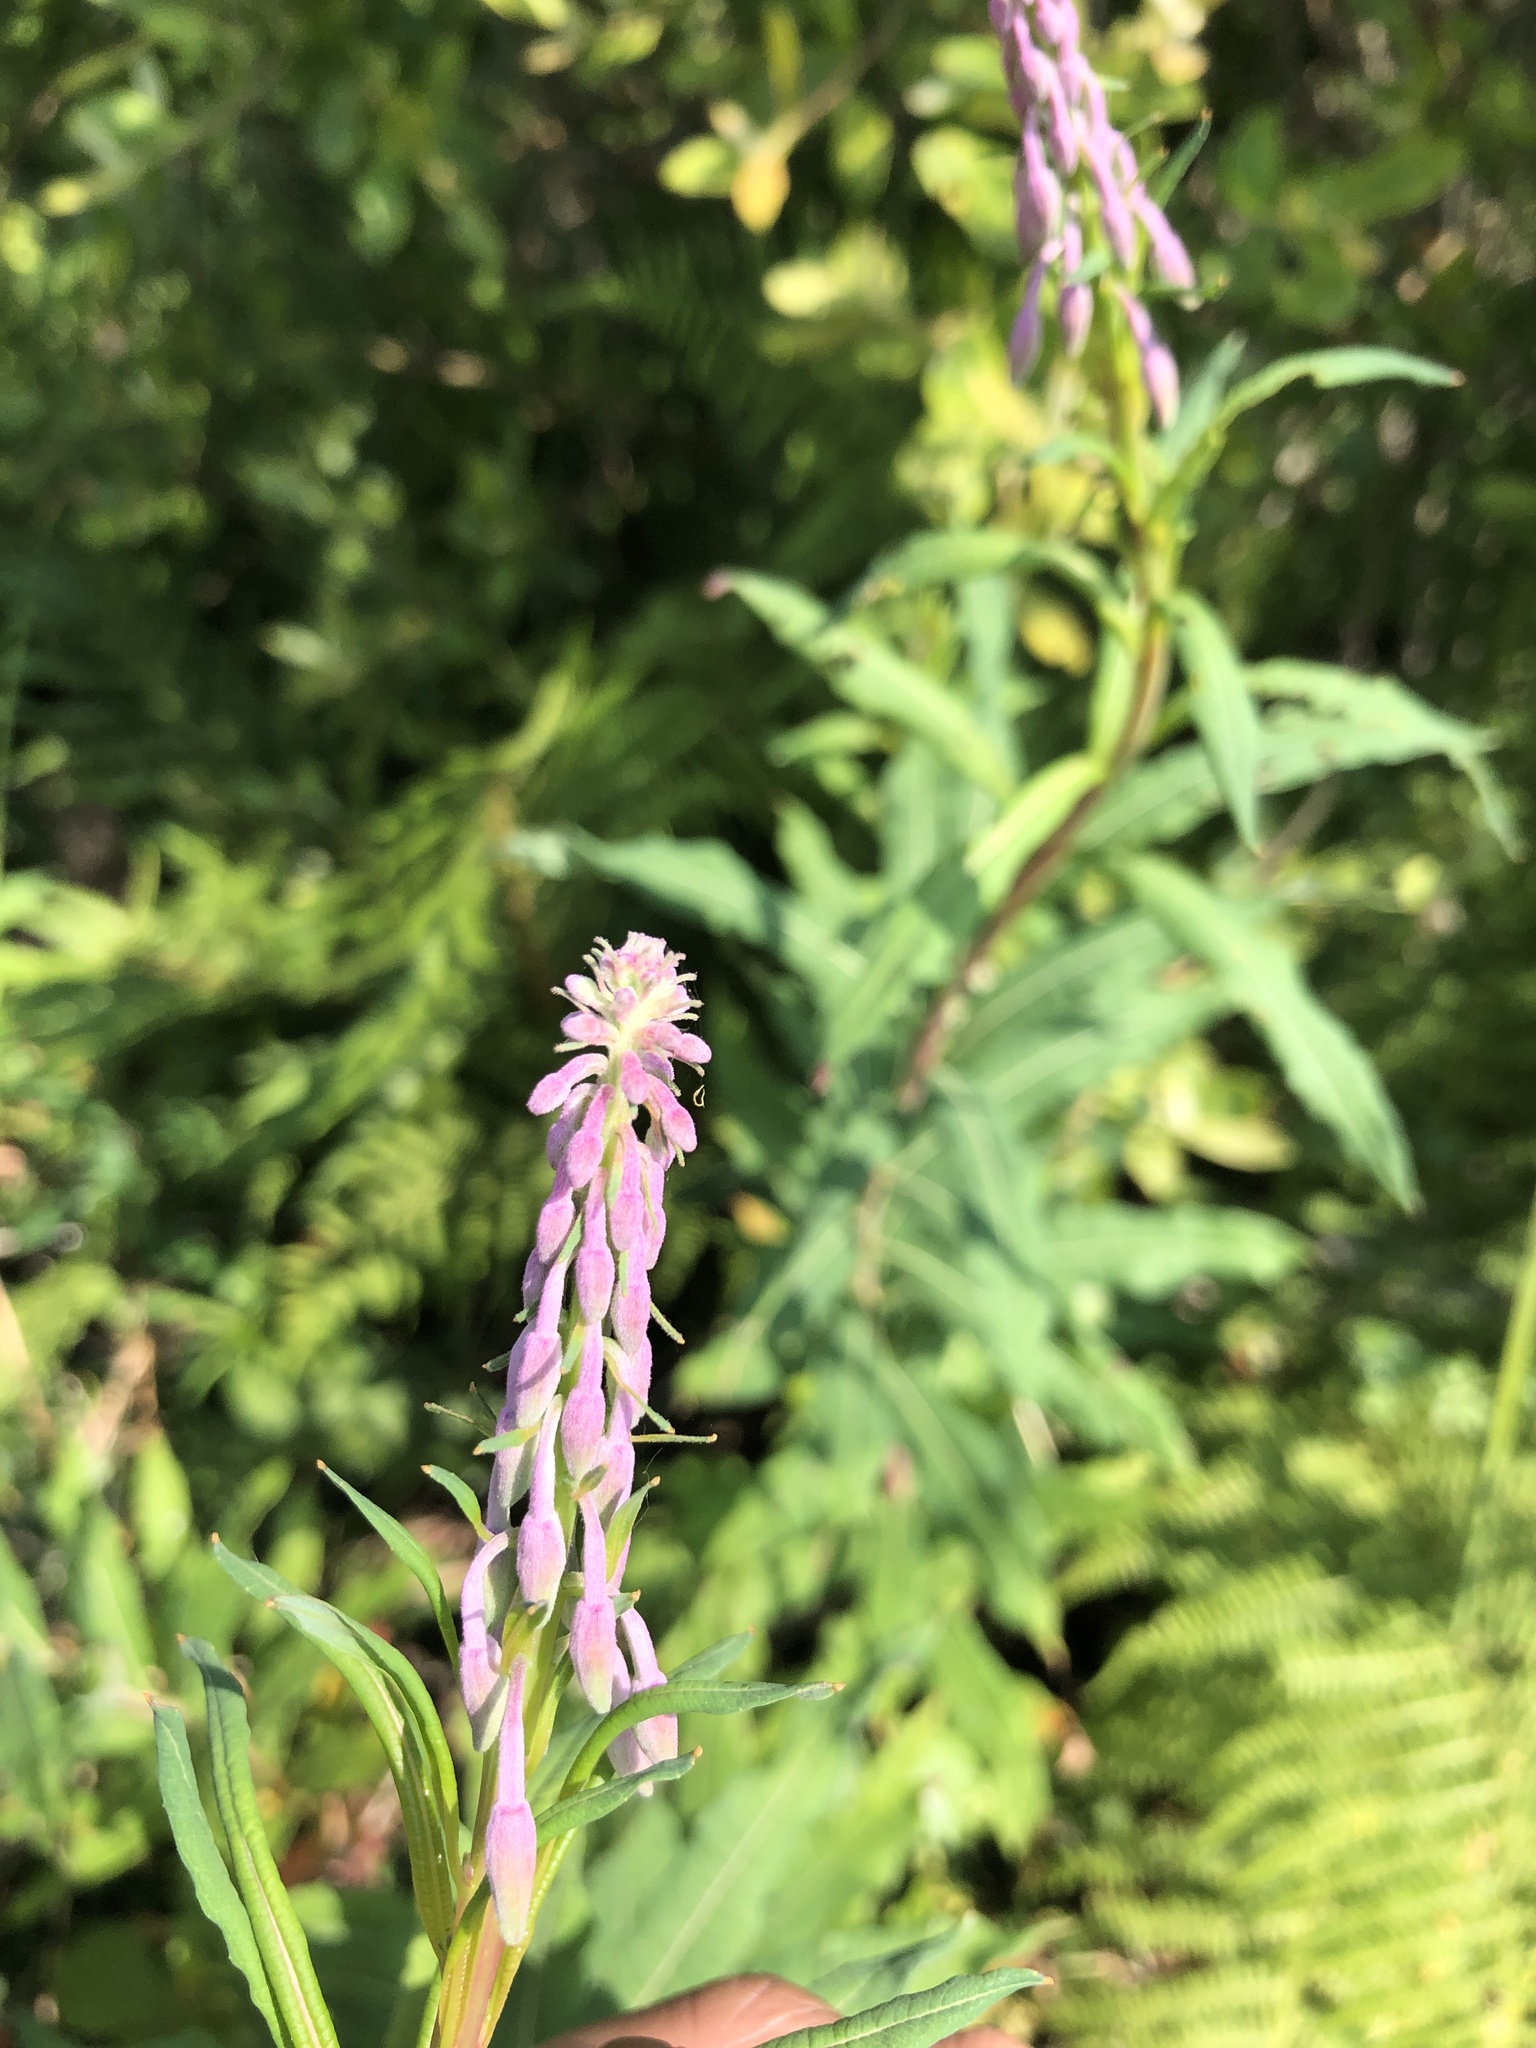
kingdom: Plantae
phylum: Tracheophyta
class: Magnoliopsida
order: Myrtales
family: Onagraceae
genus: Chamaenerion
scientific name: Chamaenerion angustifolium
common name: Fireweed
